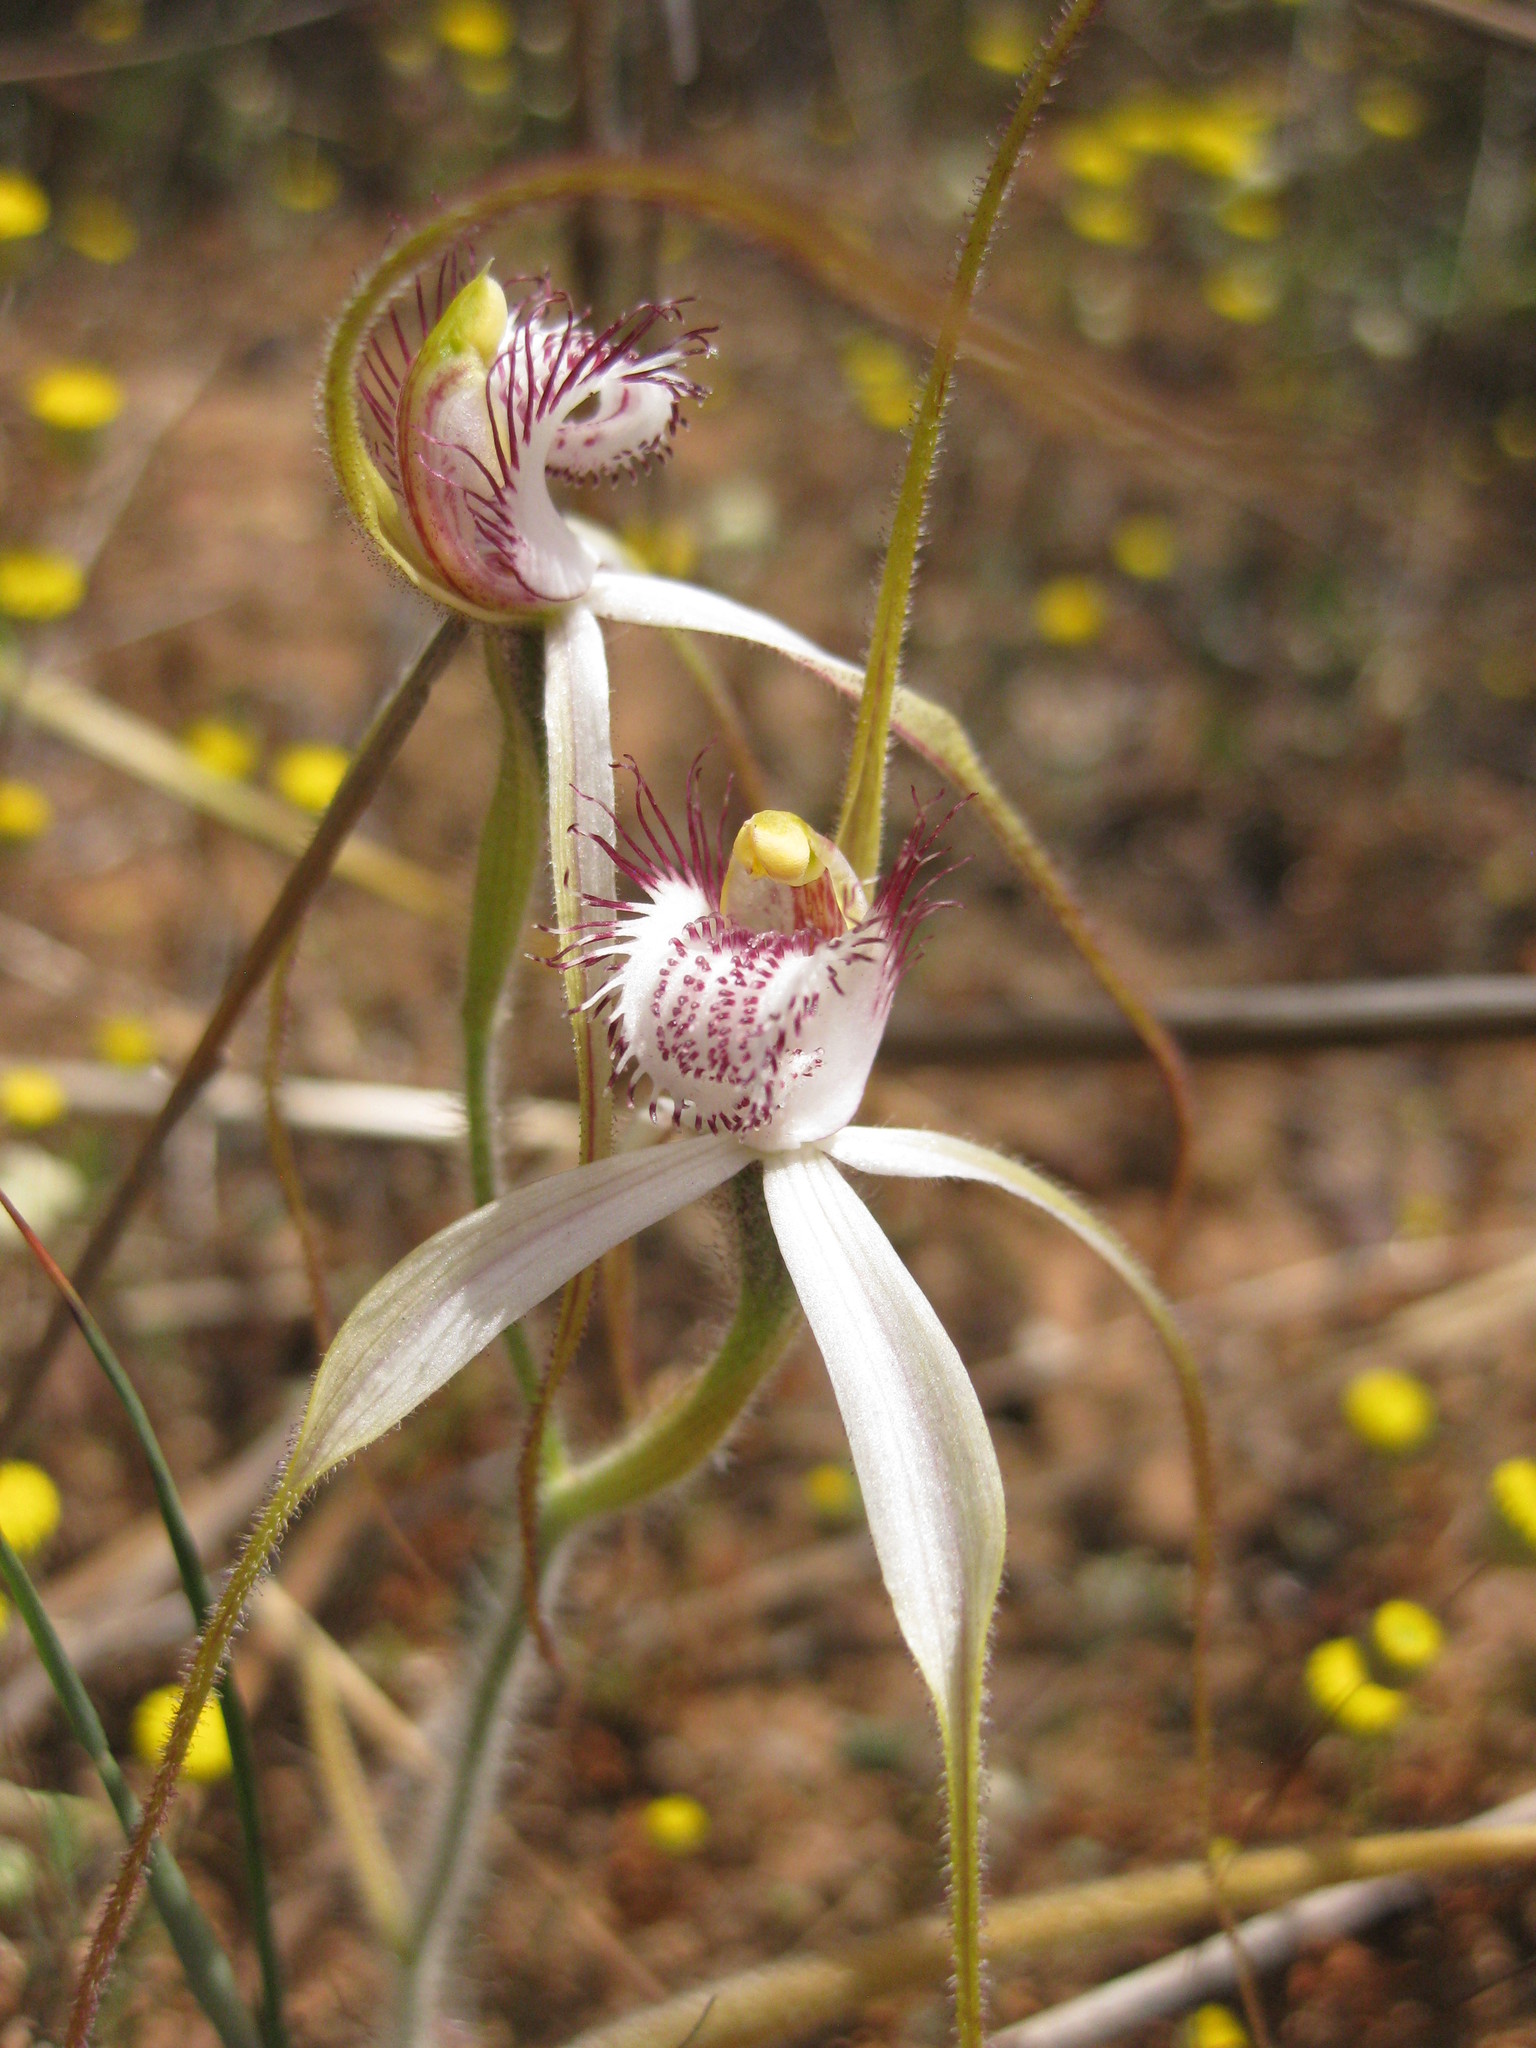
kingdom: Plantae
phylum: Tracheophyta
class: Liliopsida
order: Asparagales
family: Orchidaceae
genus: Caladenia
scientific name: Caladenia longicauda
